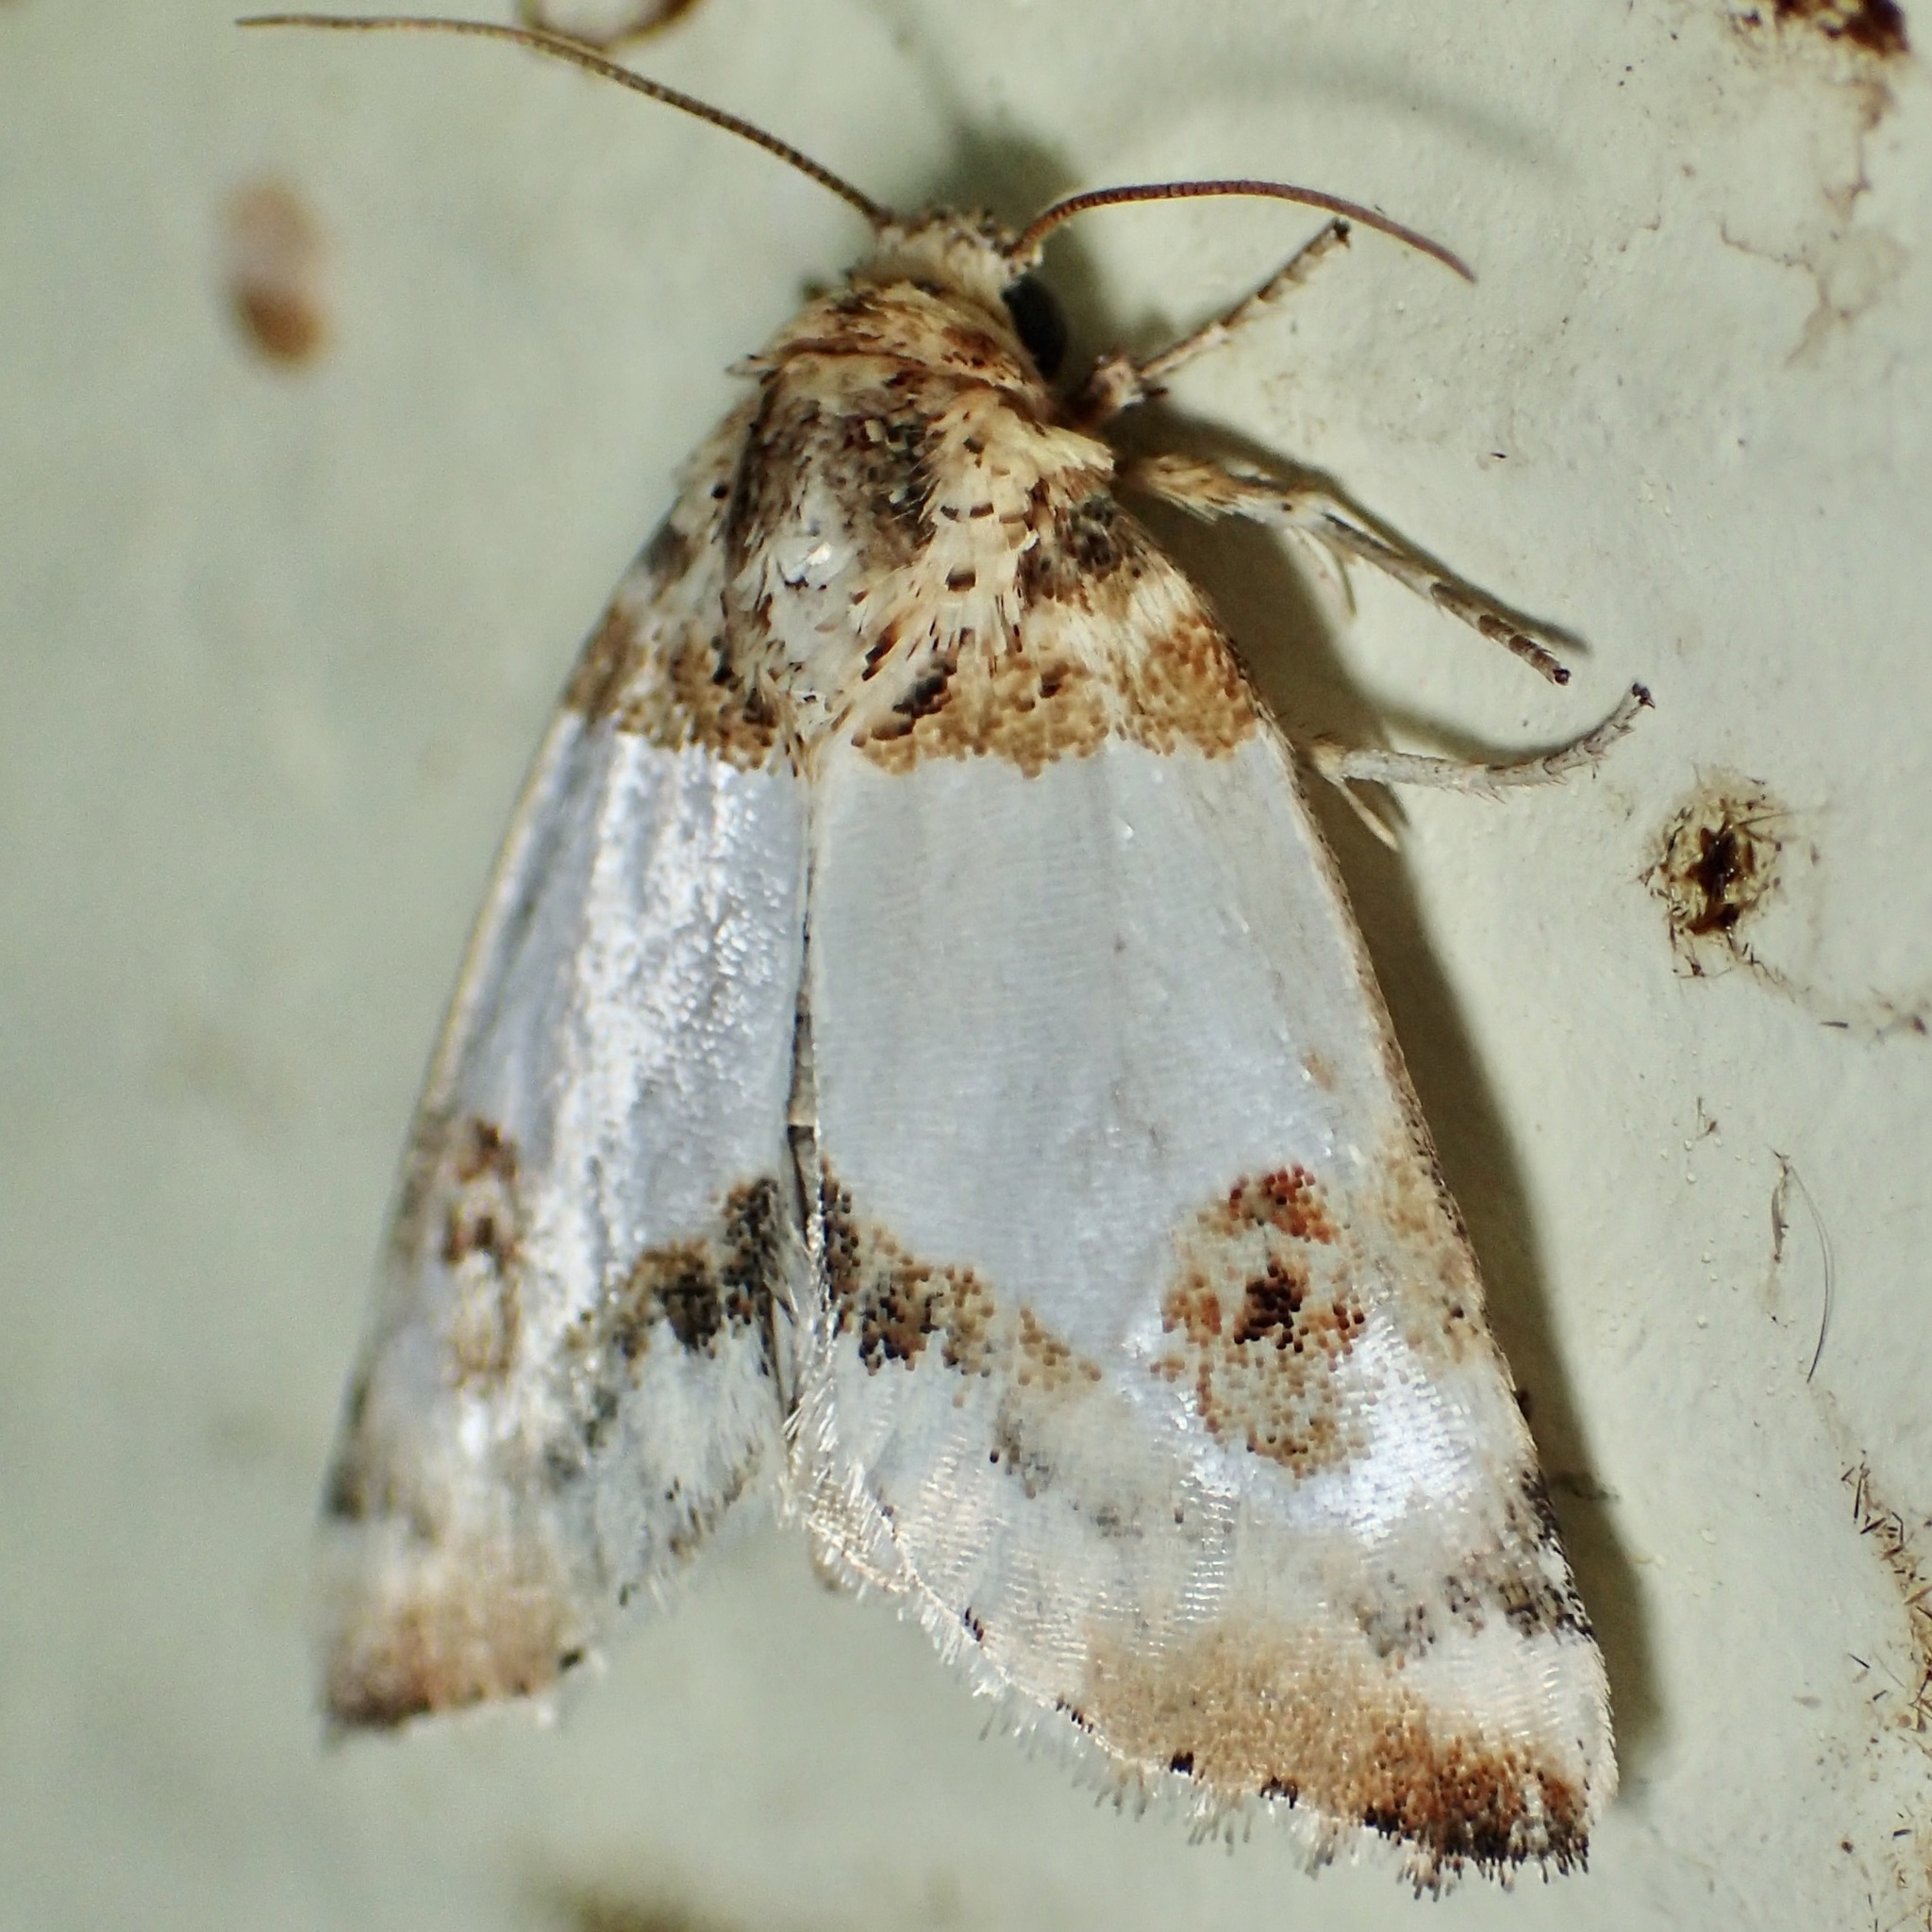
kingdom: Animalia
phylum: Arthropoda
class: Insecta
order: Lepidoptera
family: Noctuidae
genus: Schinia
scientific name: Schinia oculata
